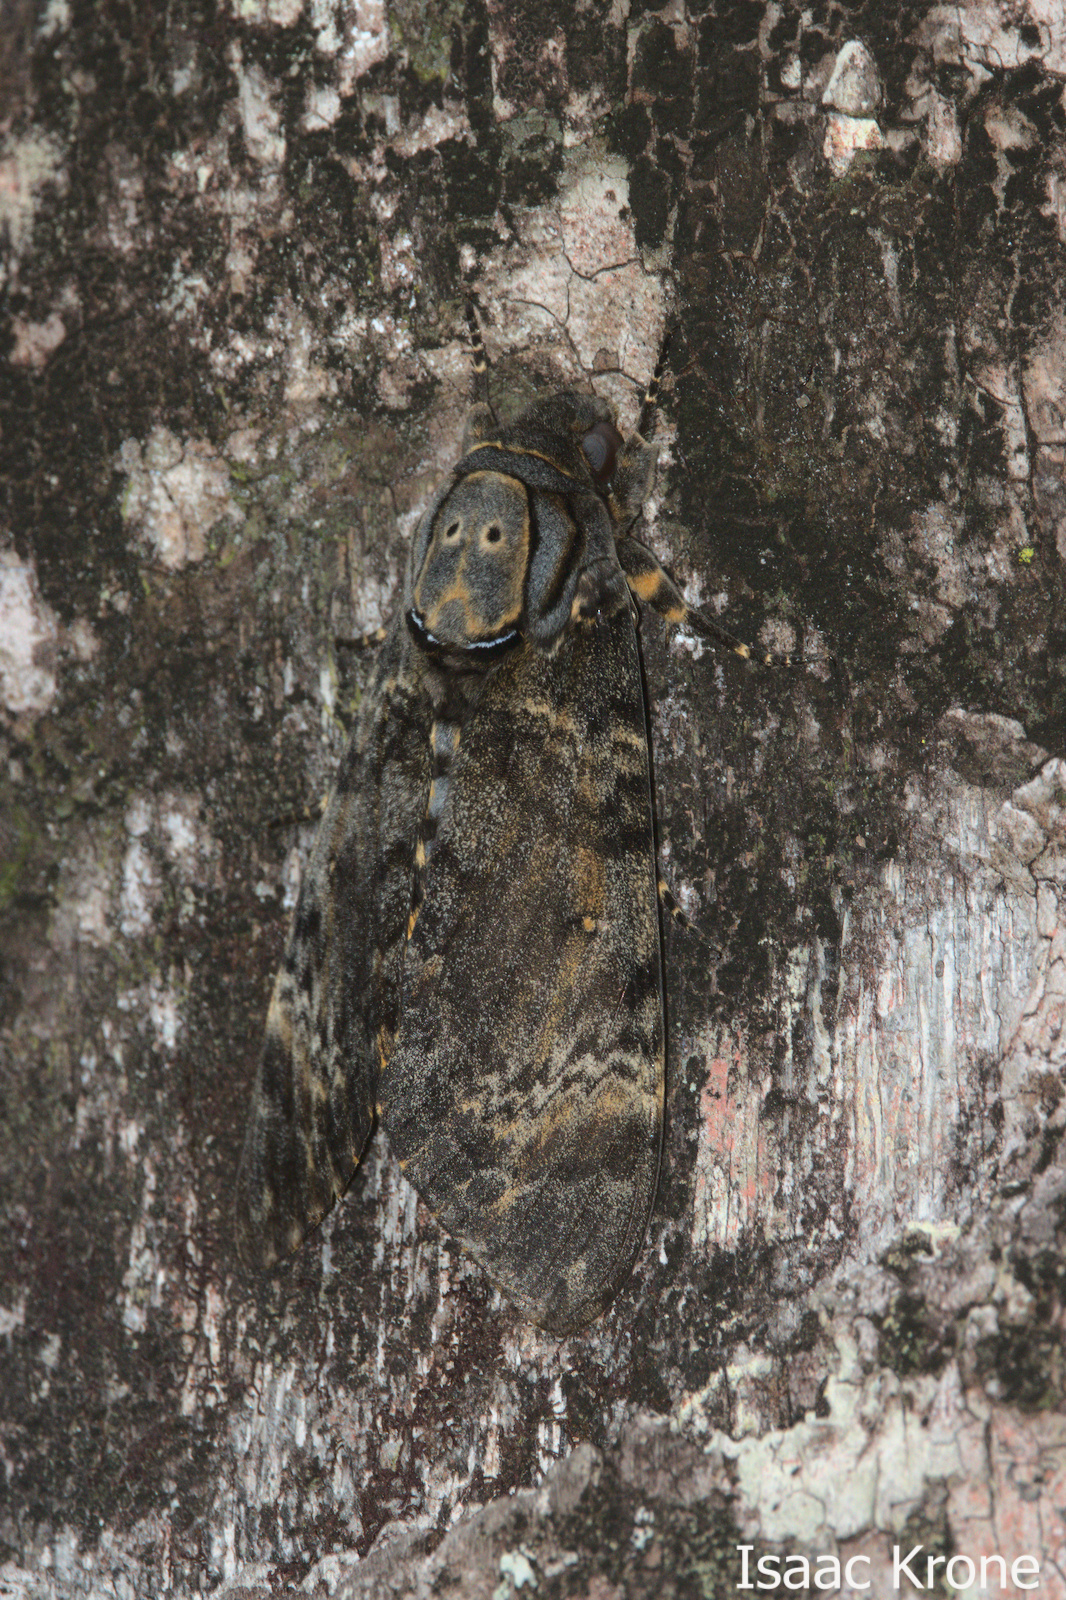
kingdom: Animalia
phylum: Arthropoda
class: Insecta
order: Lepidoptera
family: Sphingidae
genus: Acherontia
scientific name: Acherontia styx
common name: Death's-head hawk moth
